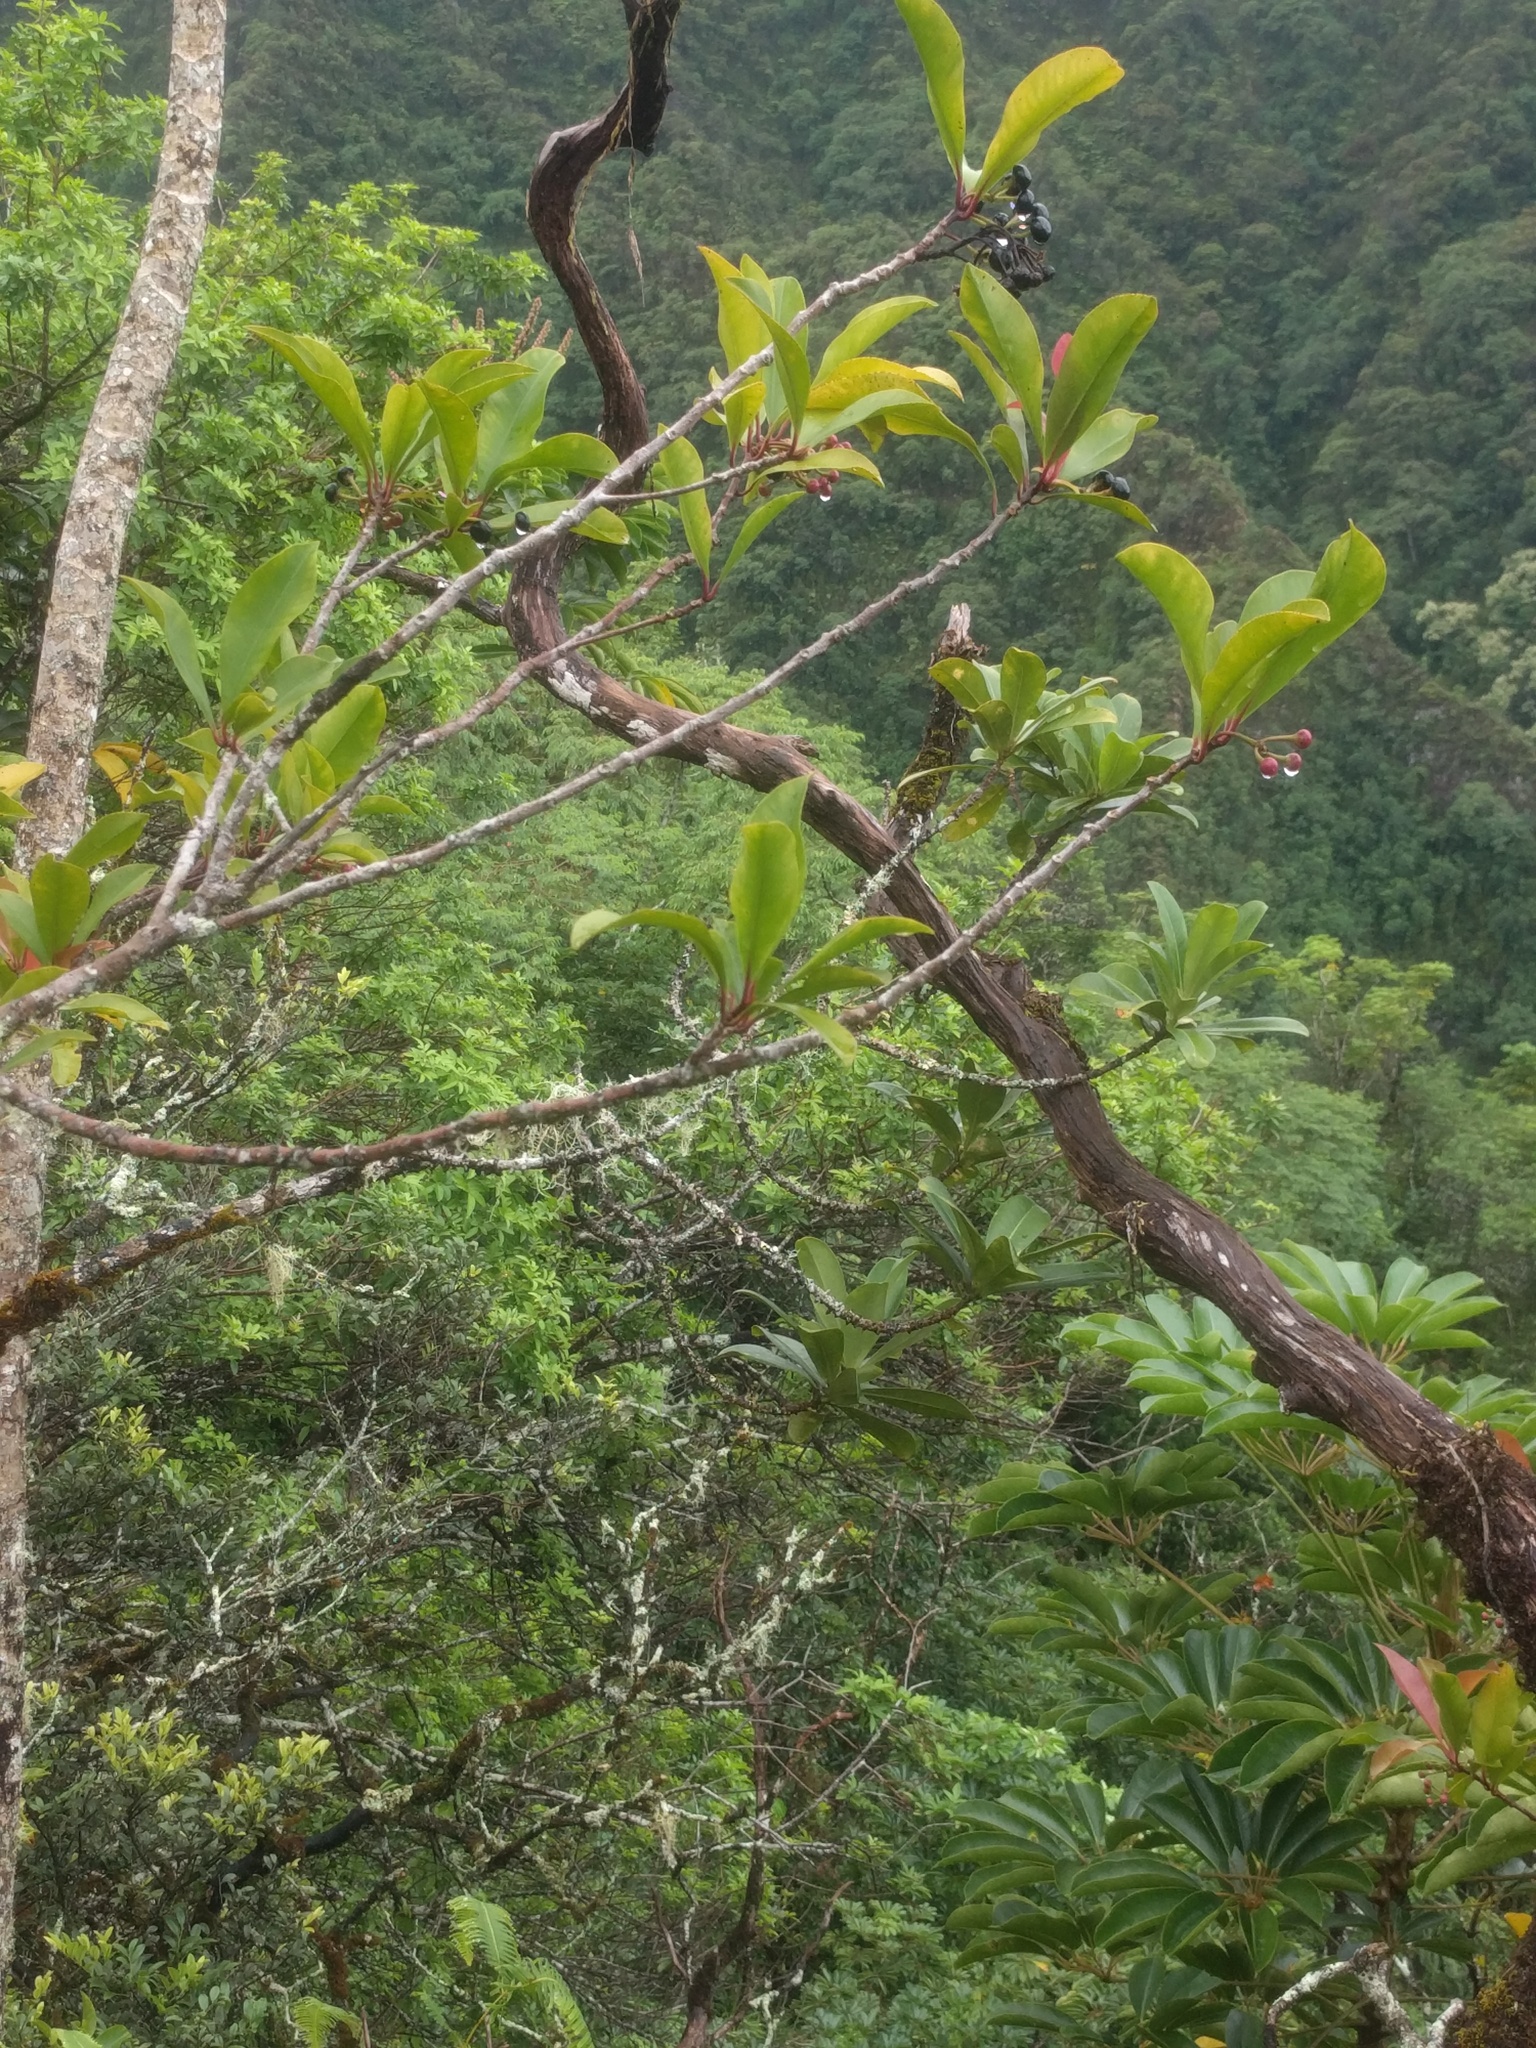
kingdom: Plantae
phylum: Tracheophyta
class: Magnoliopsida
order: Ericales
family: Primulaceae
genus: Ardisia
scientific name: Ardisia elliptica
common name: Shoebutton
